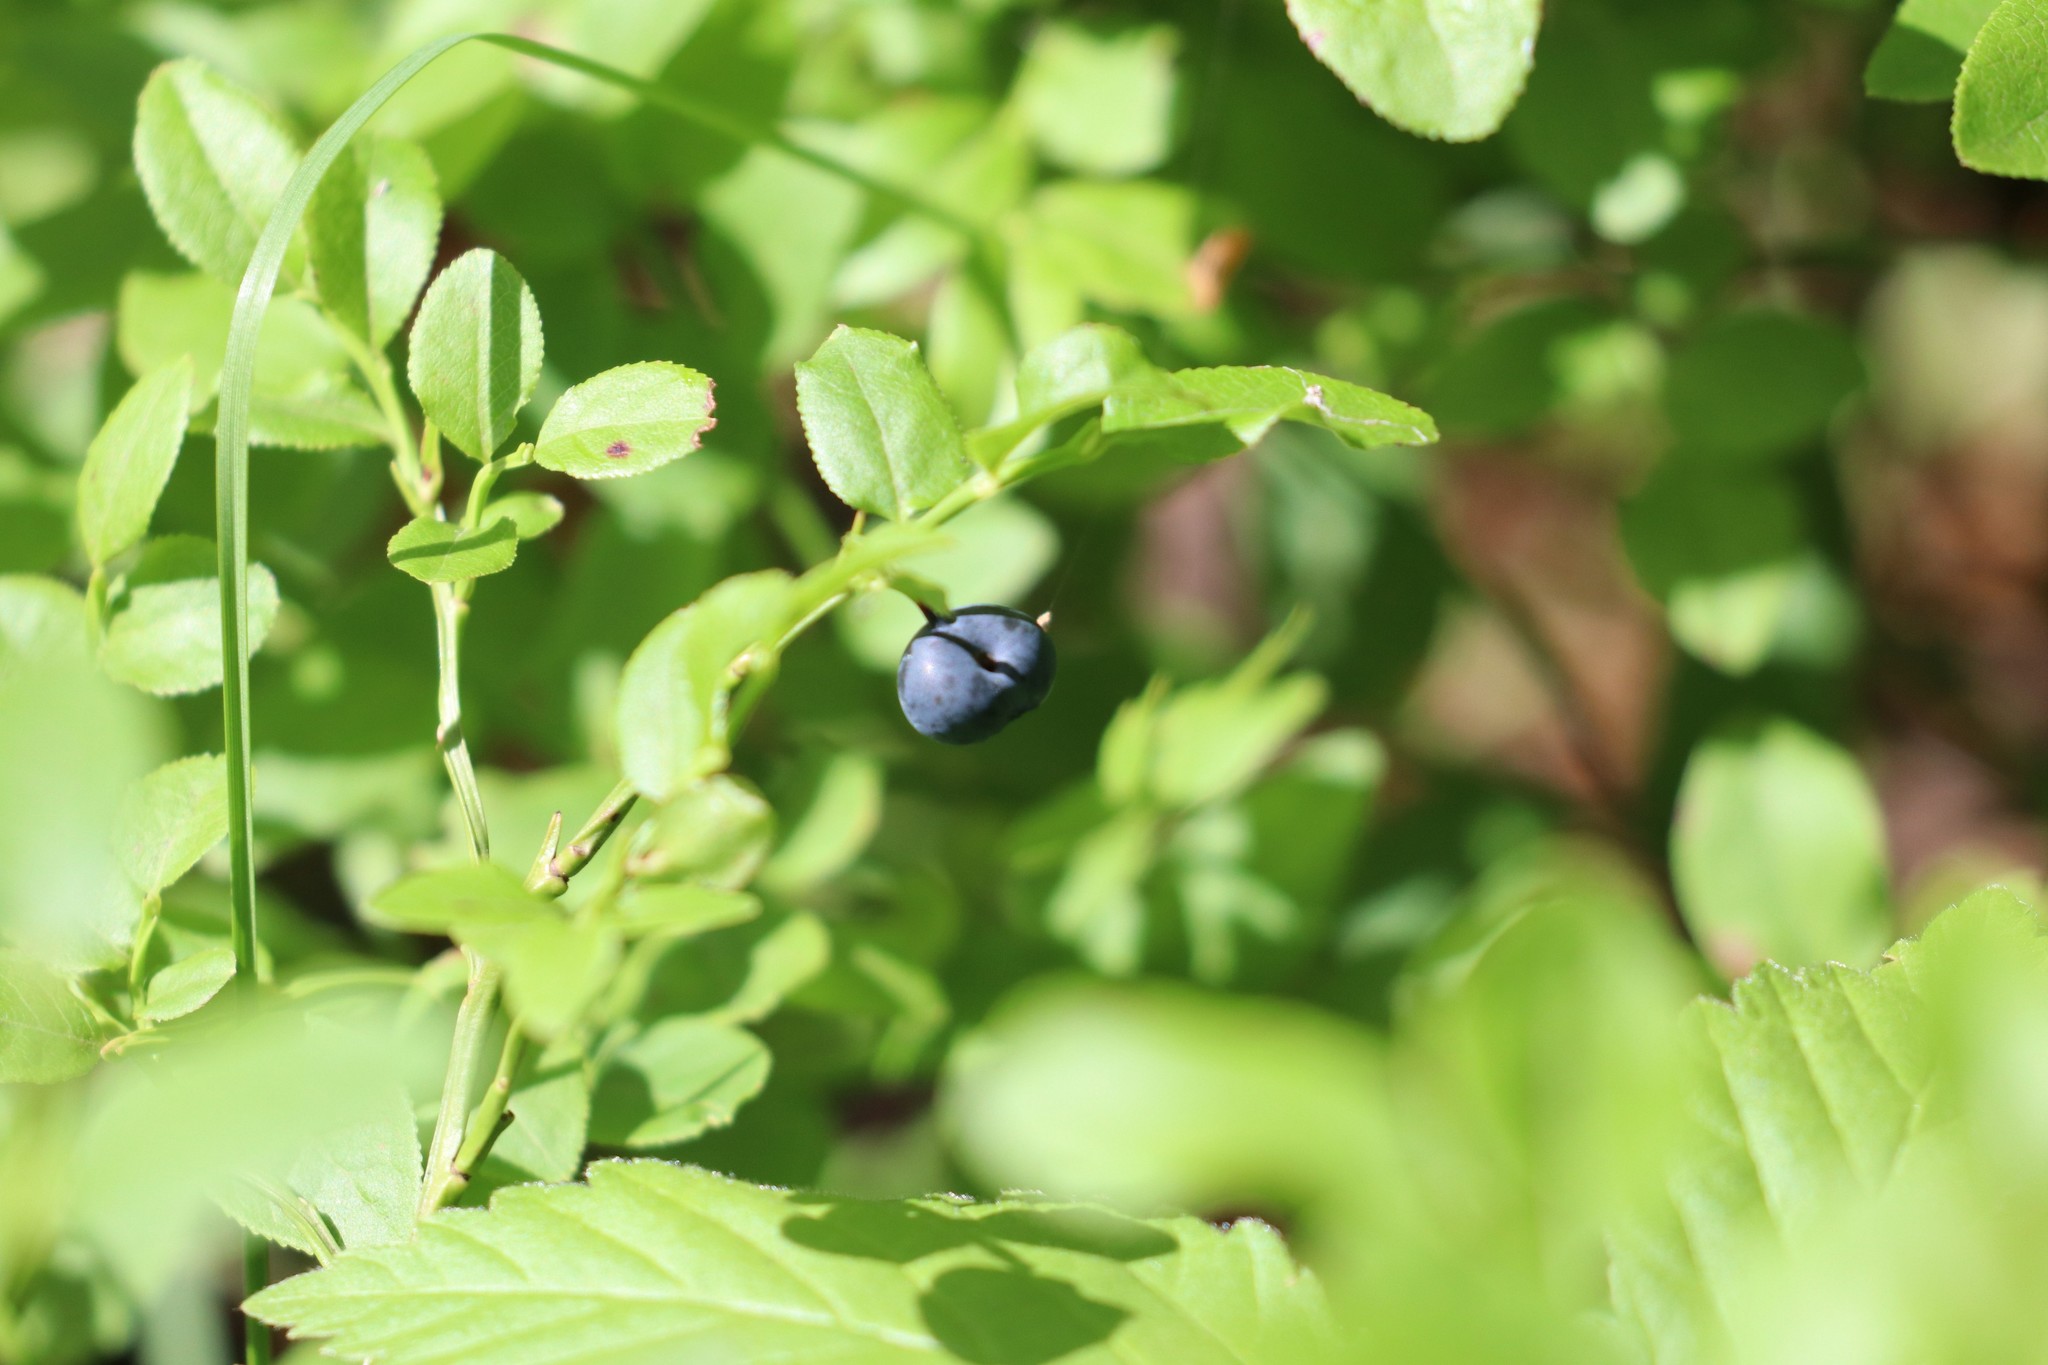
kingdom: Plantae
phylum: Tracheophyta
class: Magnoliopsida
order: Ericales
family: Ericaceae
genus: Vaccinium
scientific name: Vaccinium myrtillus
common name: Bilberry
